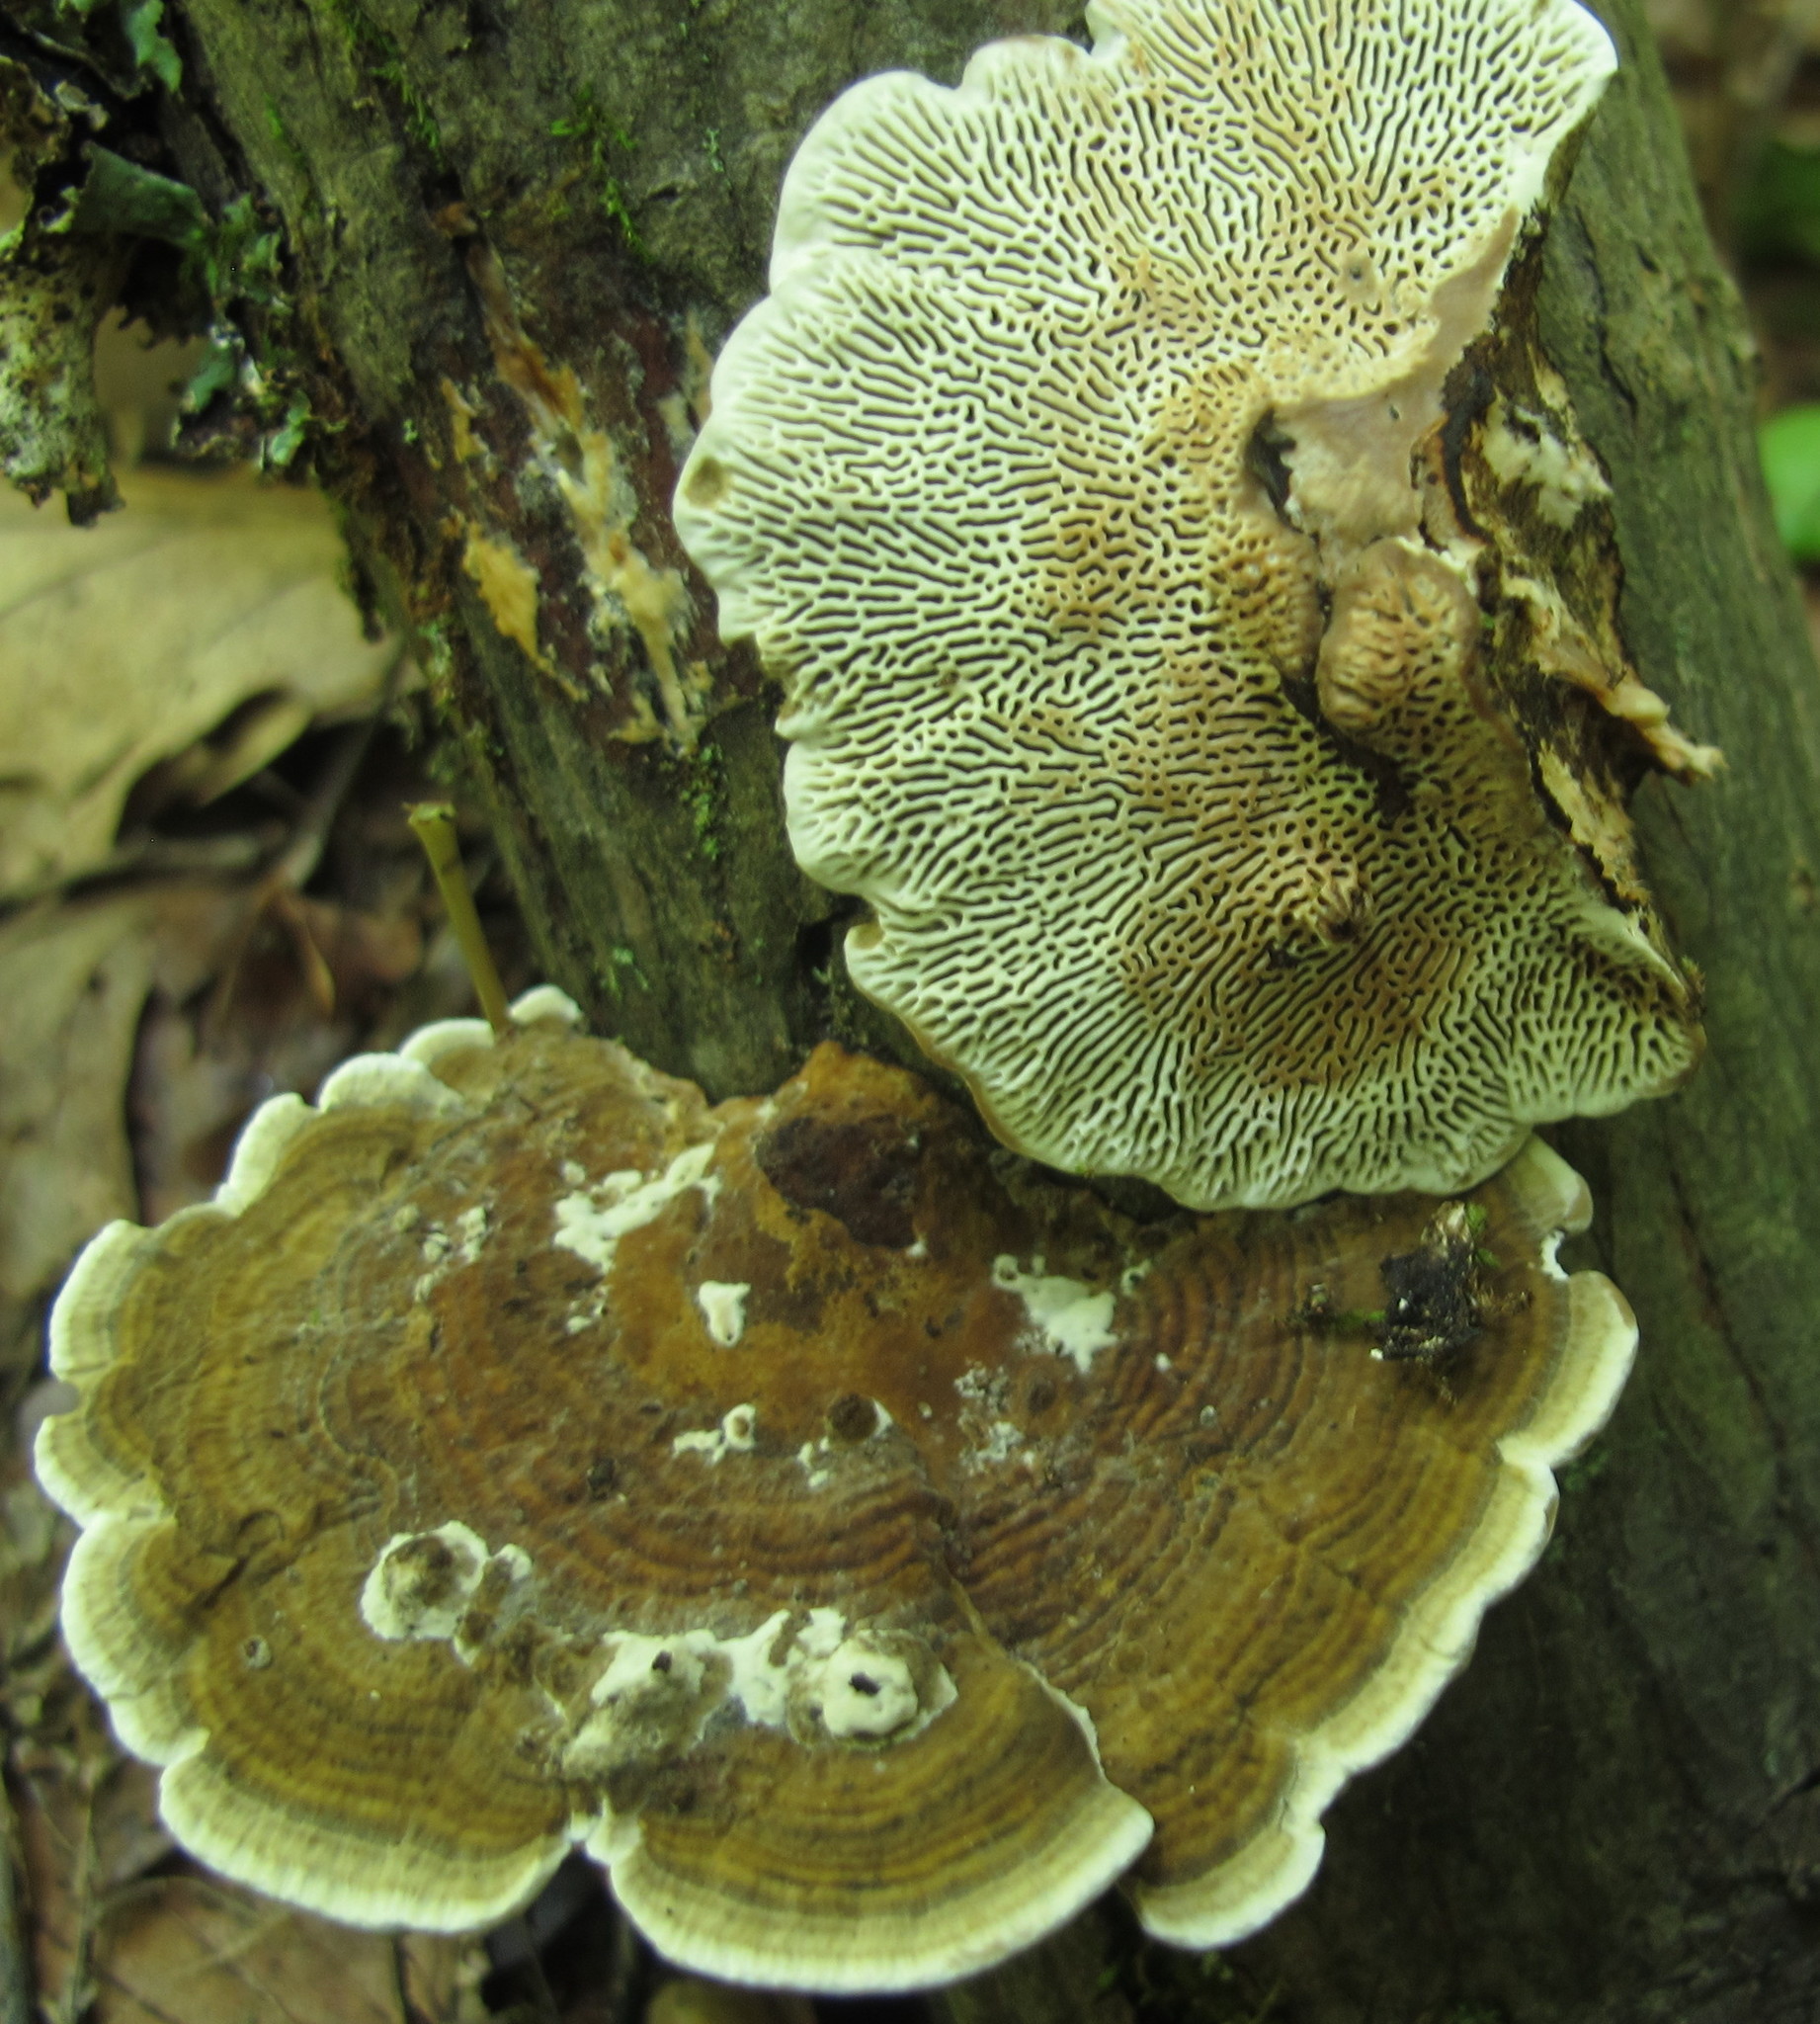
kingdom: Fungi
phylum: Basidiomycota
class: Agaricomycetes
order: Polyporales
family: Polyporaceae
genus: Daedaleopsis
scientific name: Daedaleopsis confragosa
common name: Blushing bracket
